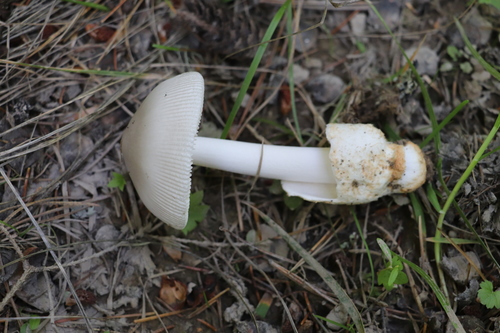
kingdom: Fungi
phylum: Basidiomycota
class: Agaricomycetes
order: Agaricales
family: Amanitaceae
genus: Amanita
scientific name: Amanita vaginata
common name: Grisette
